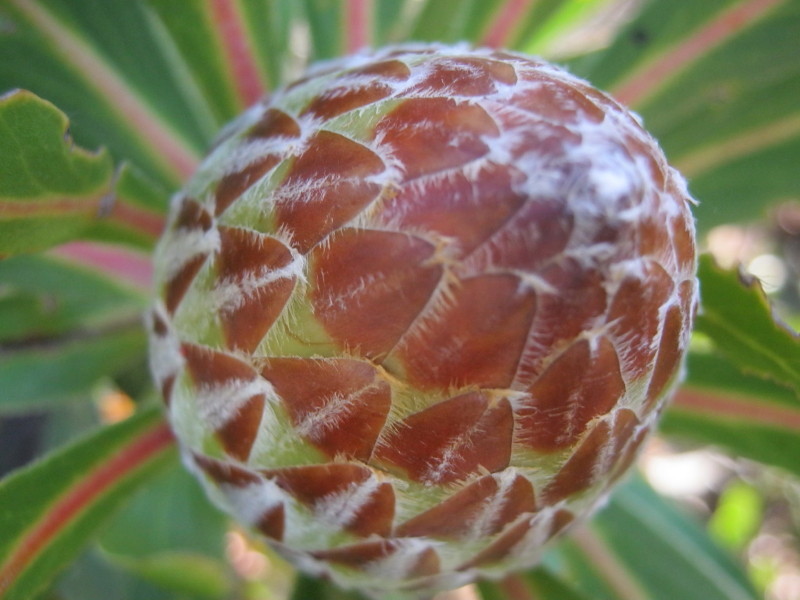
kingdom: Plantae
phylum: Tracheophyta
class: Magnoliopsida
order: Proteales
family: Proteaceae
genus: Protea
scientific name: Protea obtusifolia
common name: Bredasdorp sugarbush
